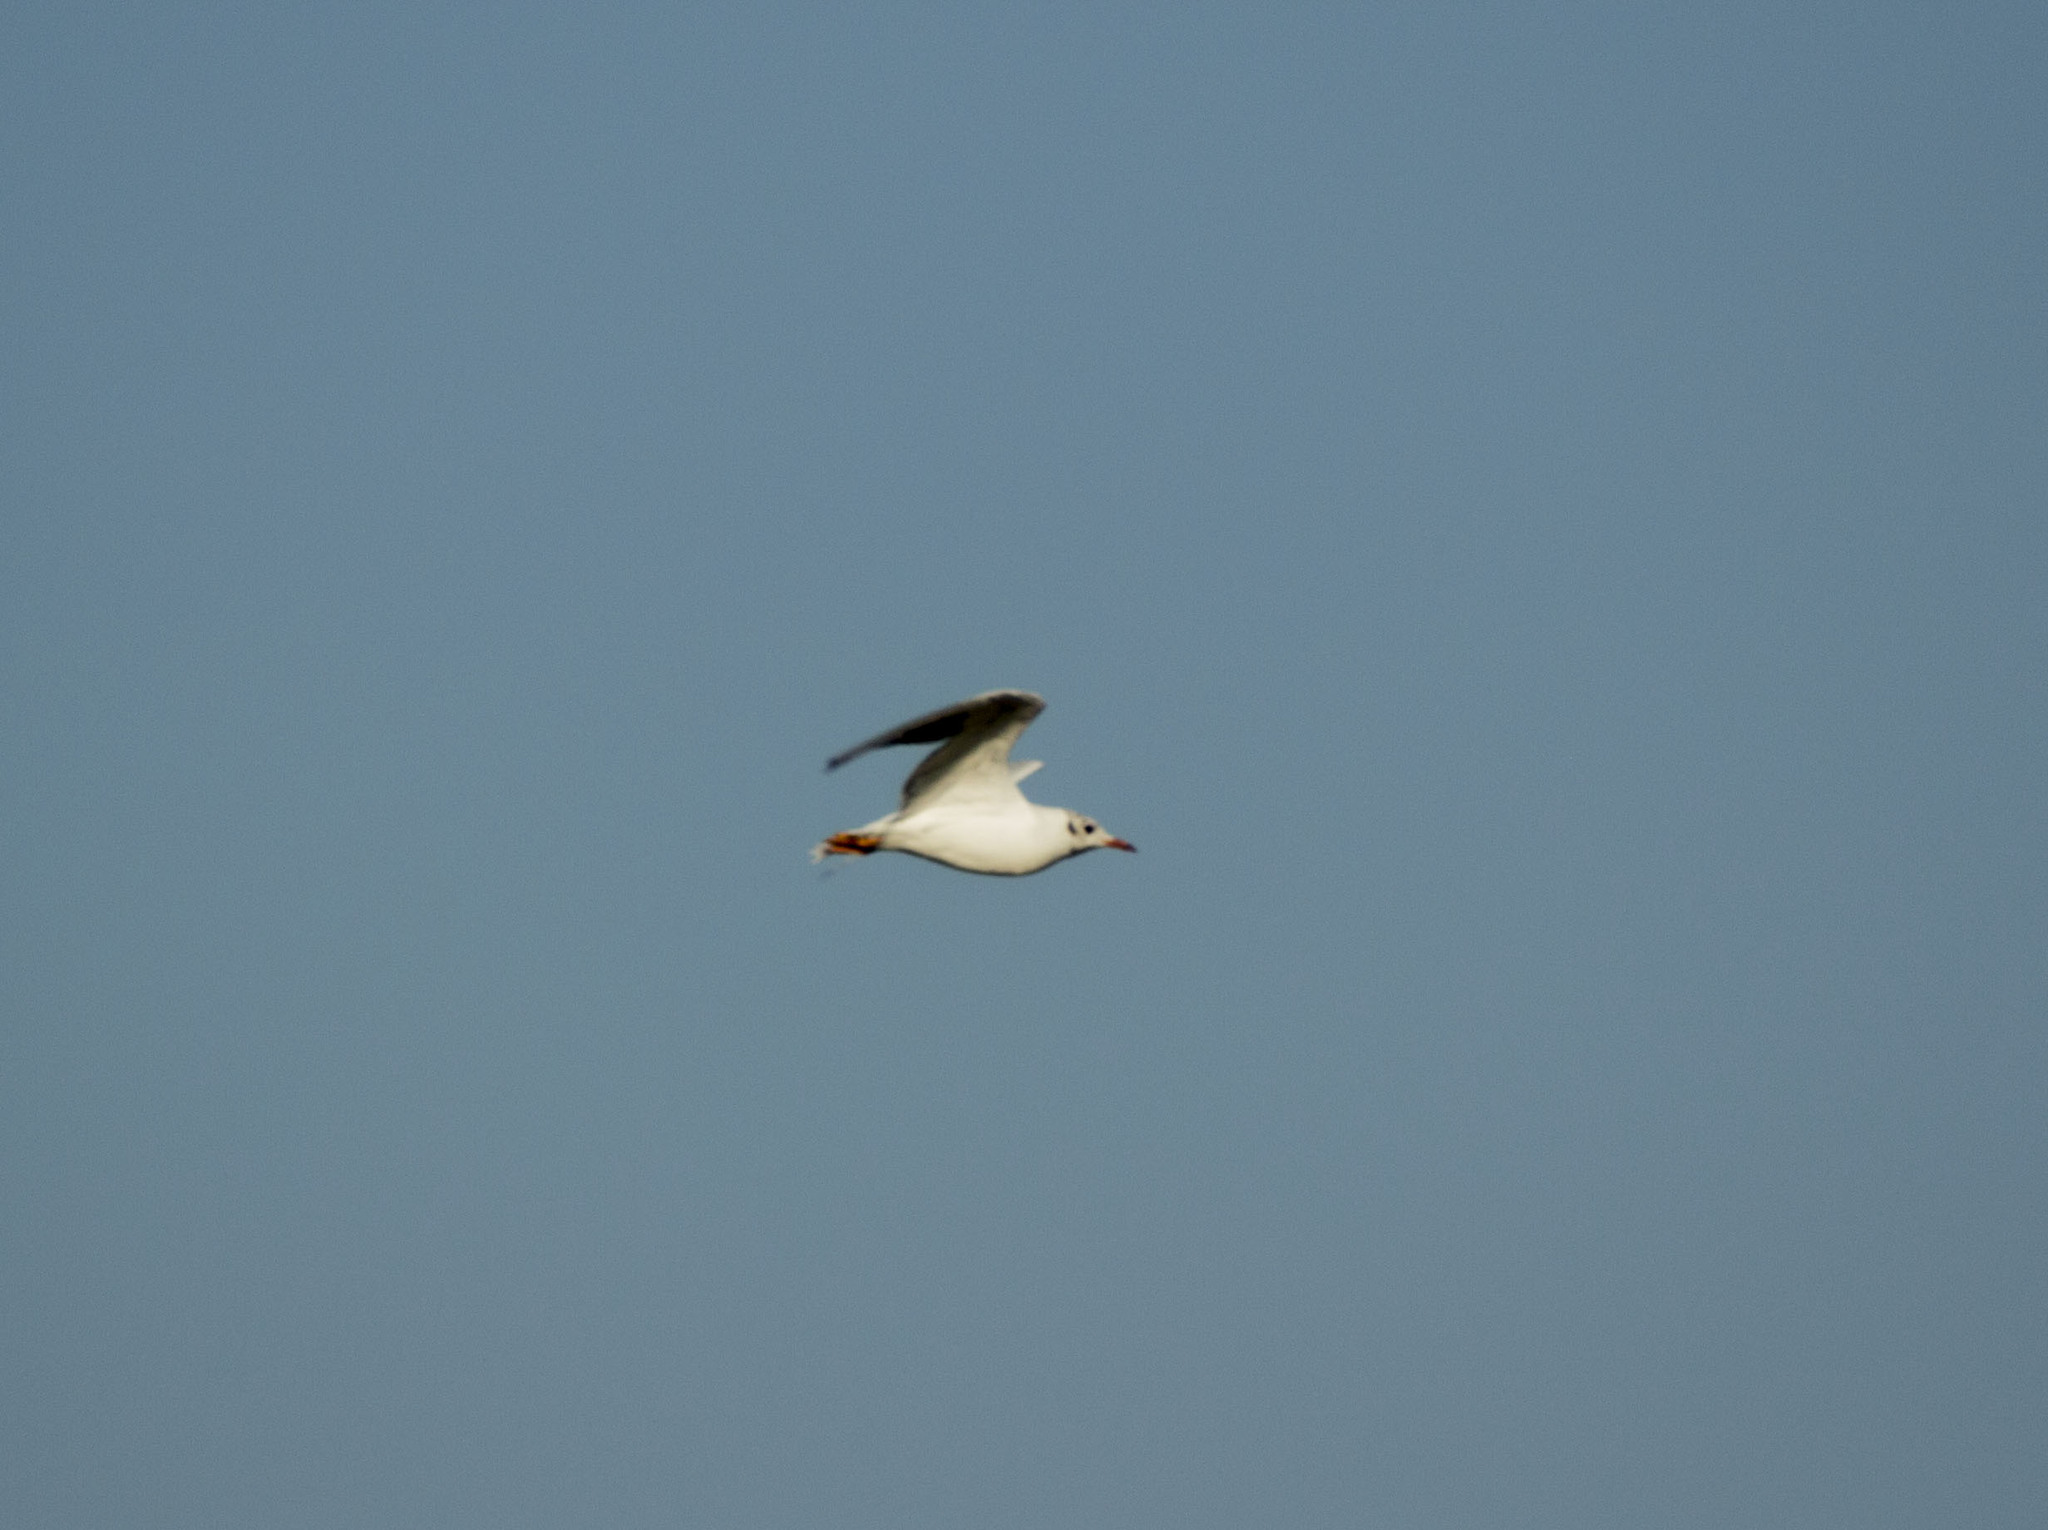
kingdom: Animalia
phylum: Chordata
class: Aves
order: Charadriiformes
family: Laridae
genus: Chroicocephalus
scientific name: Chroicocephalus ridibundus
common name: Black-headed gull
